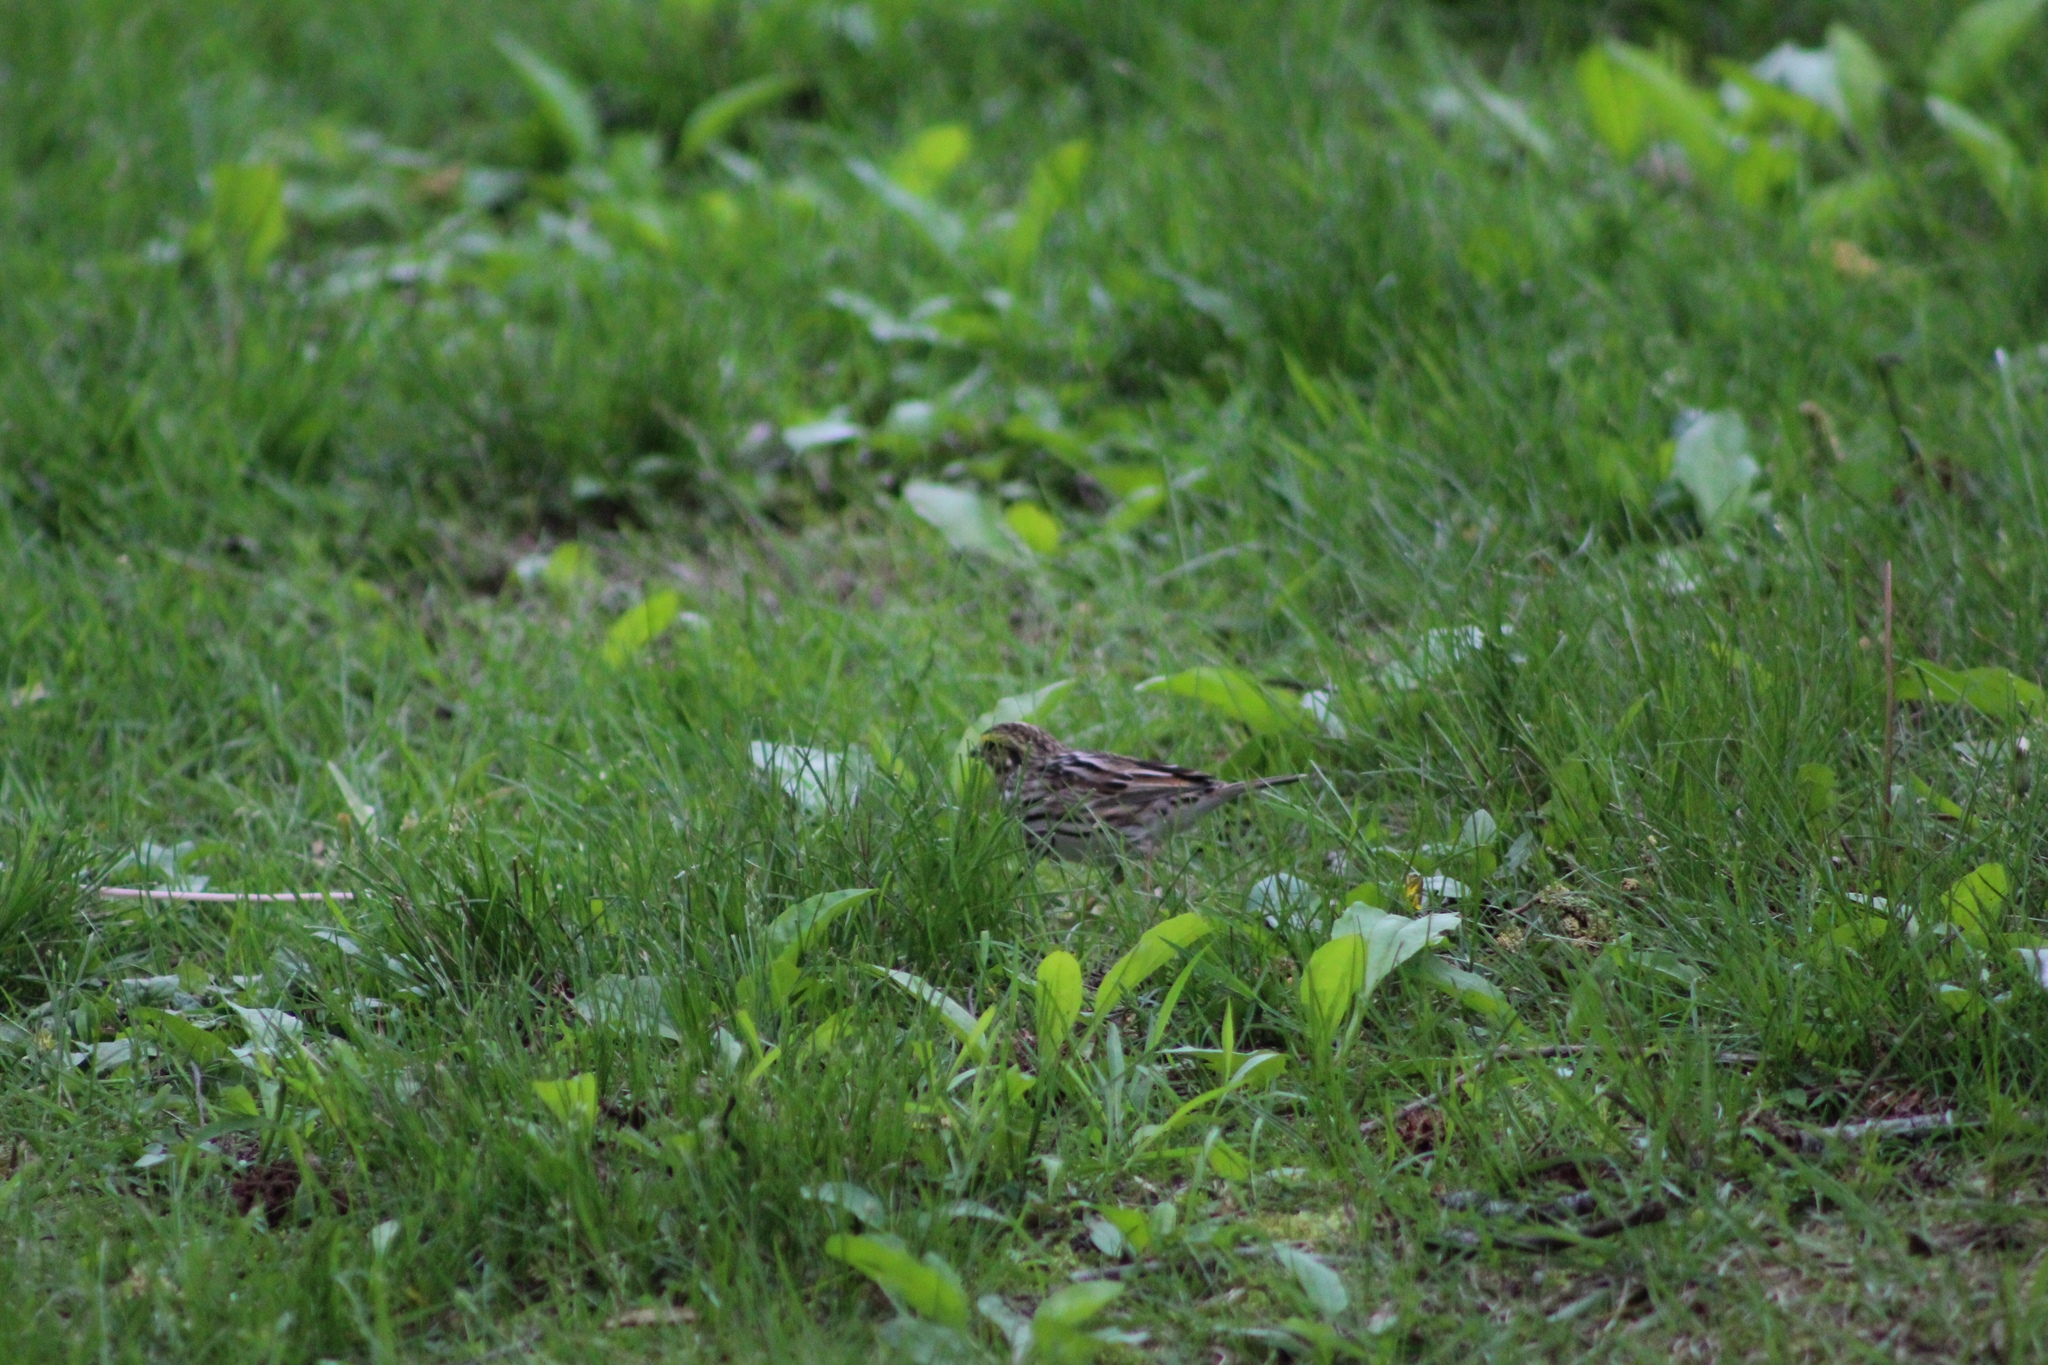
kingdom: Animalia
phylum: Chordata
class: Aves
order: Passeriformes
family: Passerellidae
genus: Passerculus
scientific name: Passerculus sandwichensis
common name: Savannah sparrow
